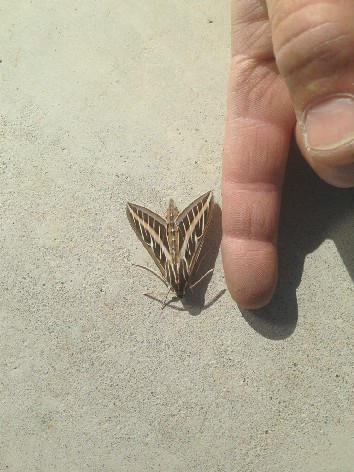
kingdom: Animalia
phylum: Arthropoda
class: Insecta
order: Lepidoptera
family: Sphingidae
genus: Hyles
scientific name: Hyles lineata
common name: White-lined sphinx
